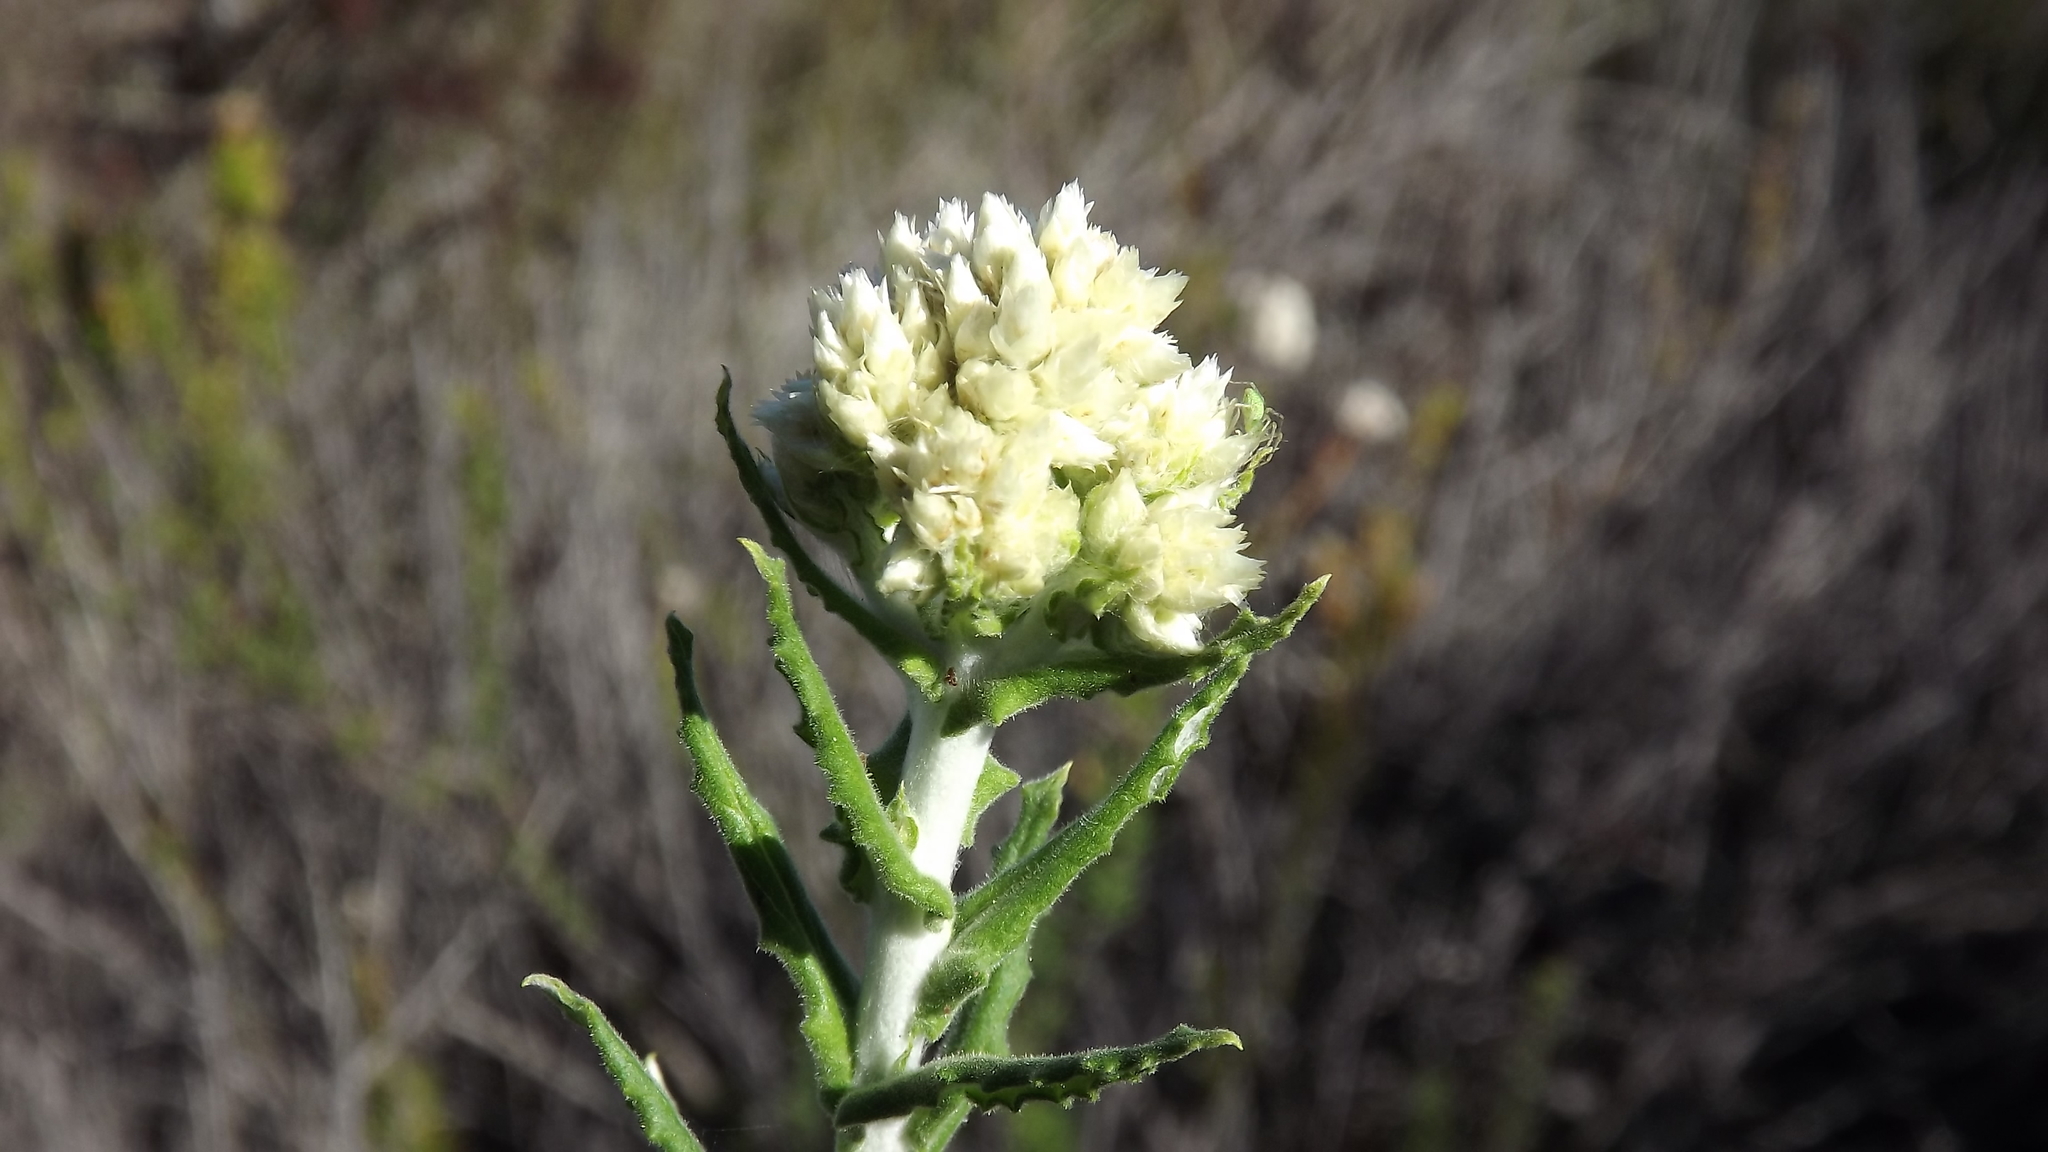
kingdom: Plantae
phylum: Tracheophyta
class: Magnoliopsida
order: Asterales
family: Asteraceae
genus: Pseudognaphalium
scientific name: Pseudognaphalium biolettii
